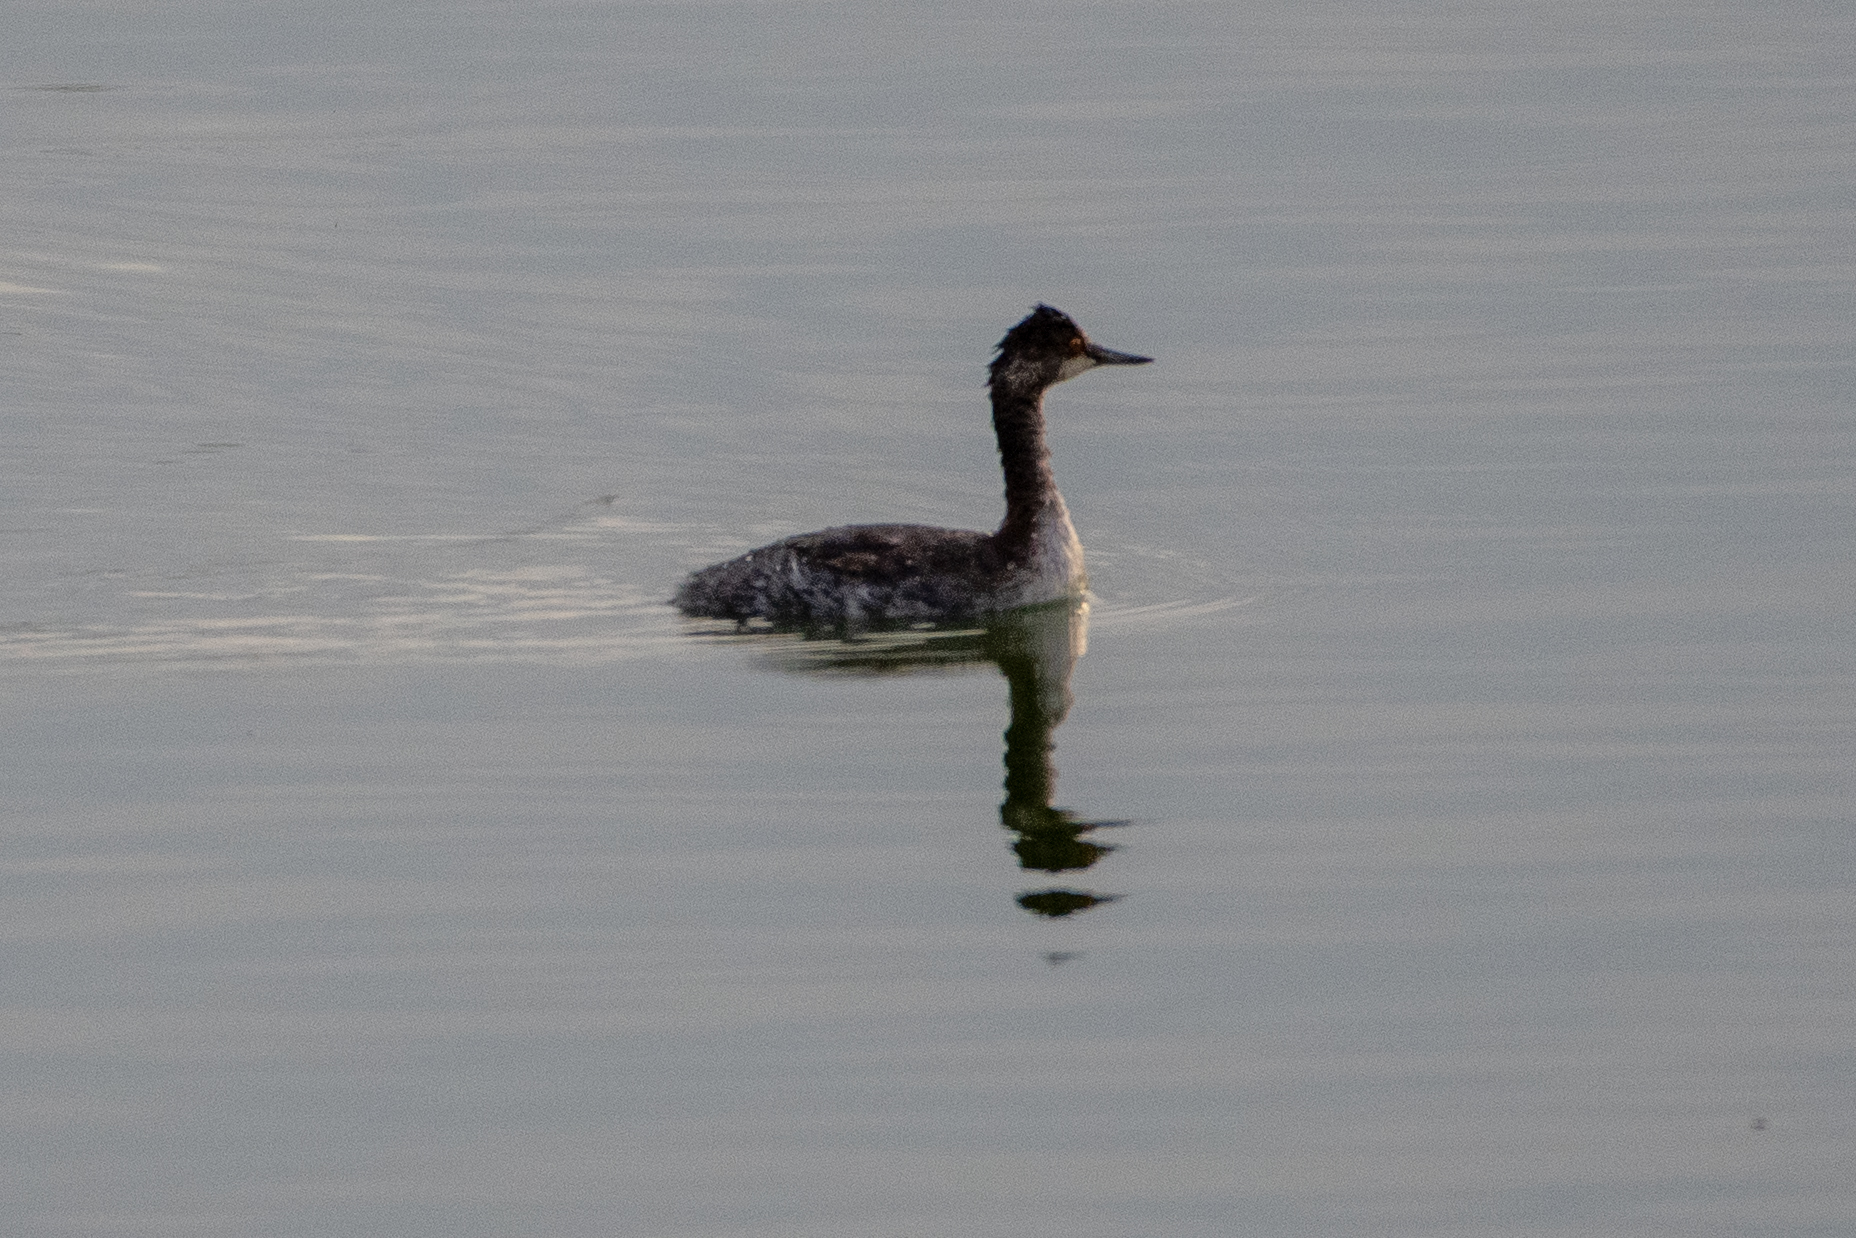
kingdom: Animalia
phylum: Chordata
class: Aves
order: Podicipediformes
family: Podicipedidae
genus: Podiceps
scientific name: Podiceps nigricollis
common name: Black-necked grebe
